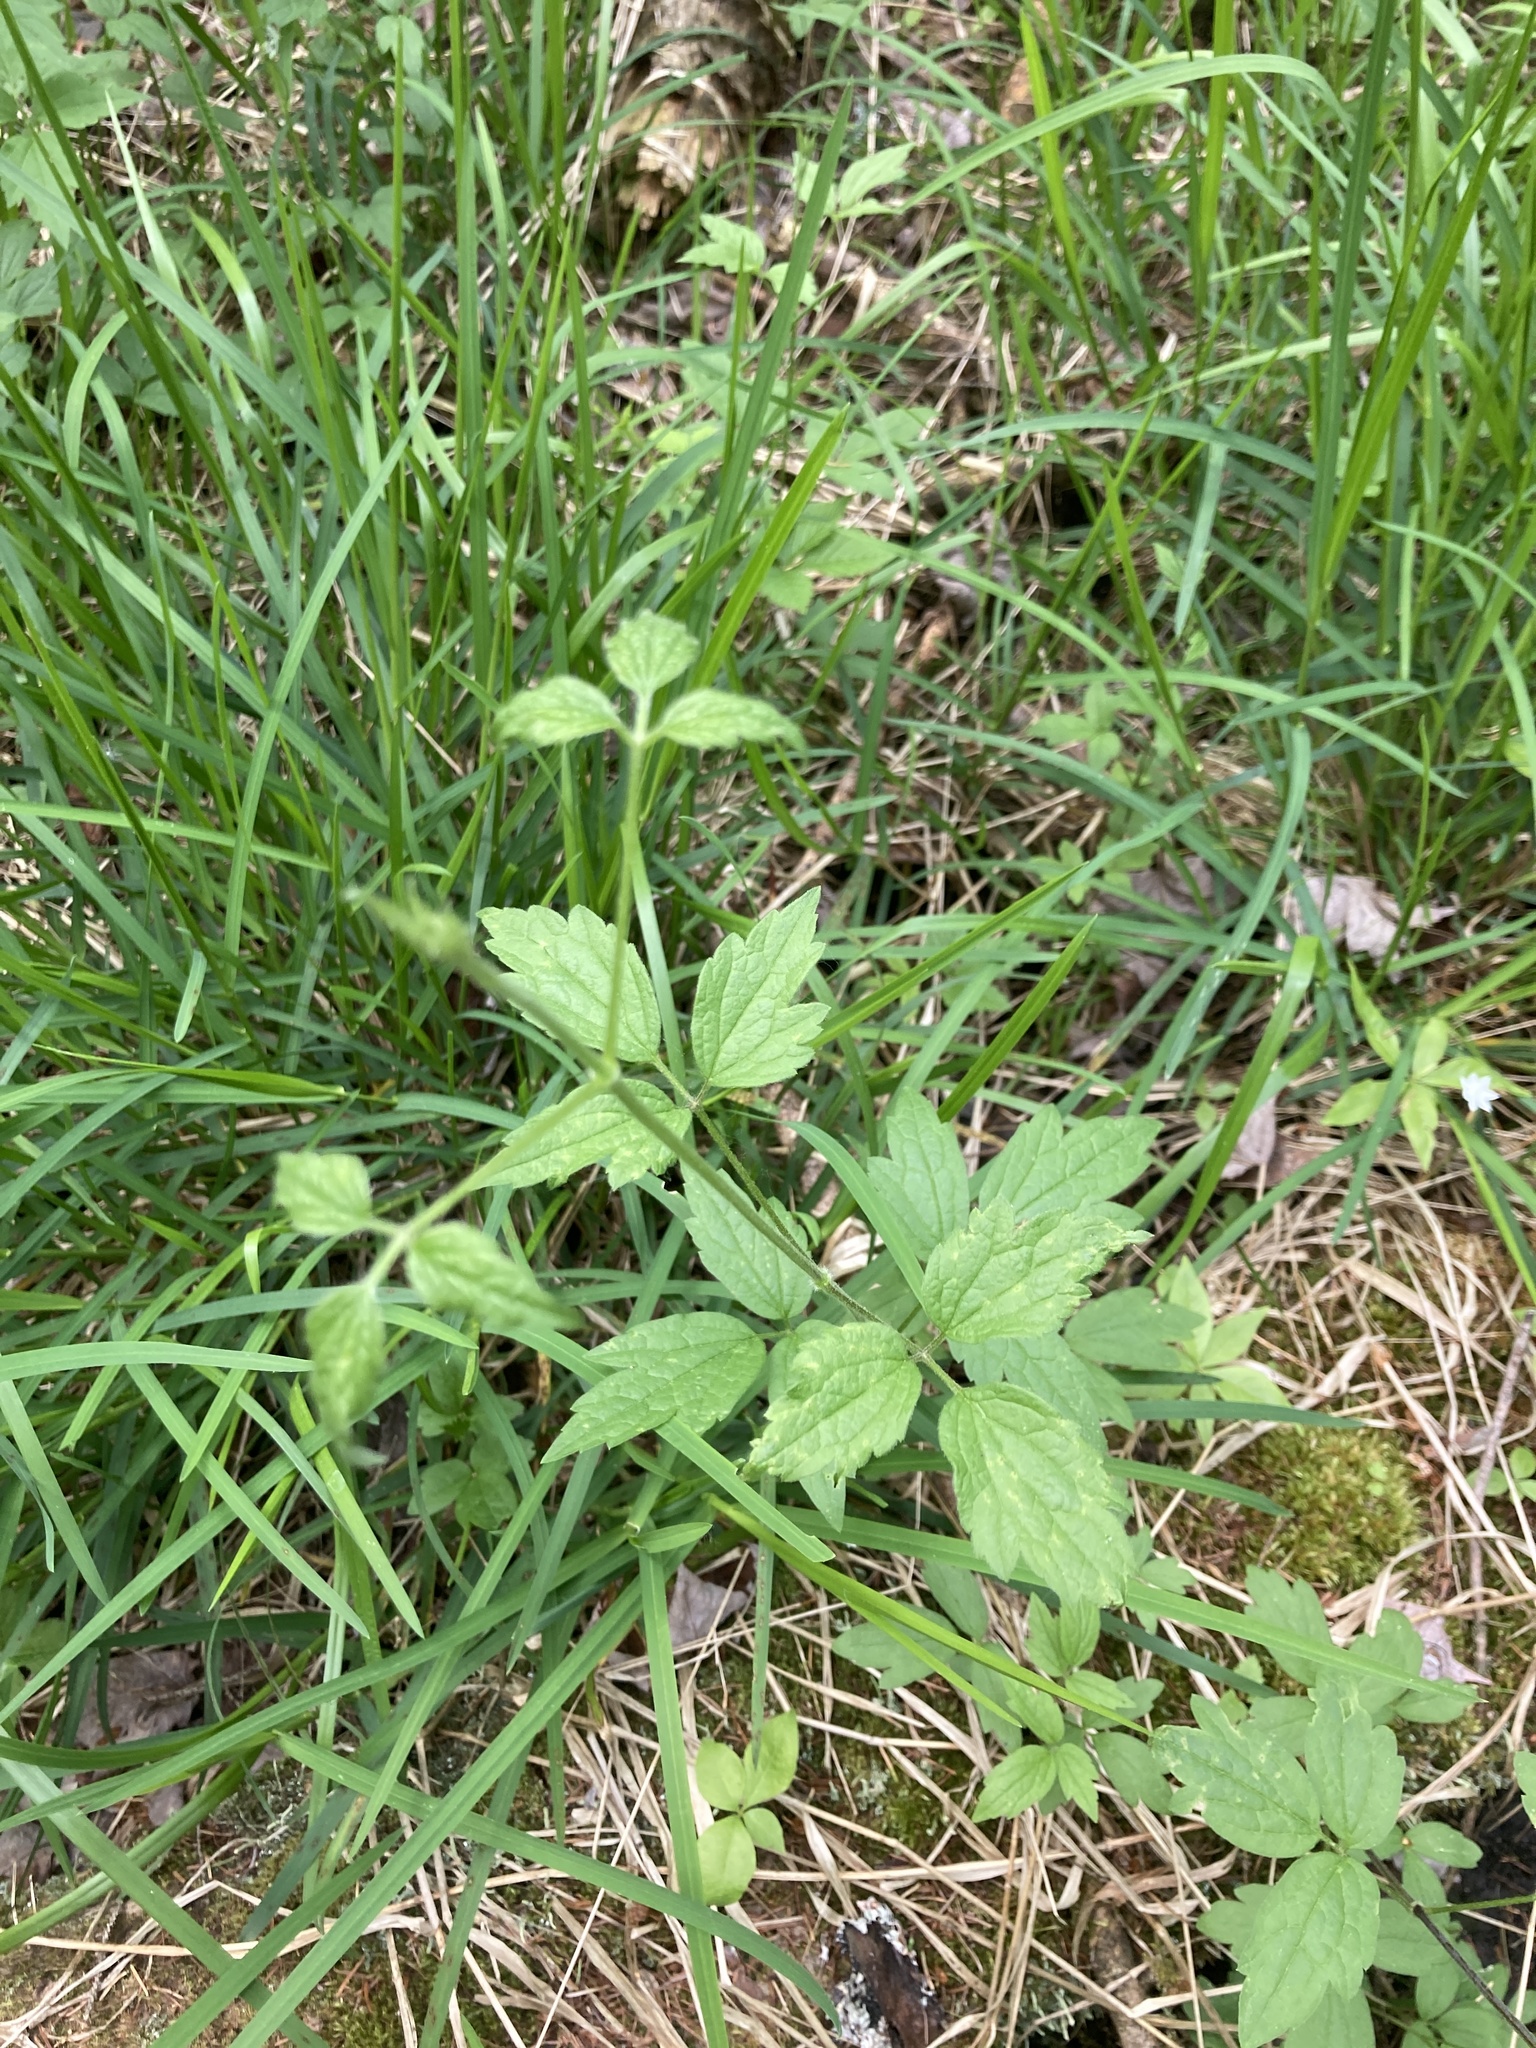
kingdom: Plantae
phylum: Tracheophyta
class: Magnoliopsida
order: Ranunculales
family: Ranunculaceae
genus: Clematis
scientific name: Clematis virginiana
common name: Virgin's-bower
